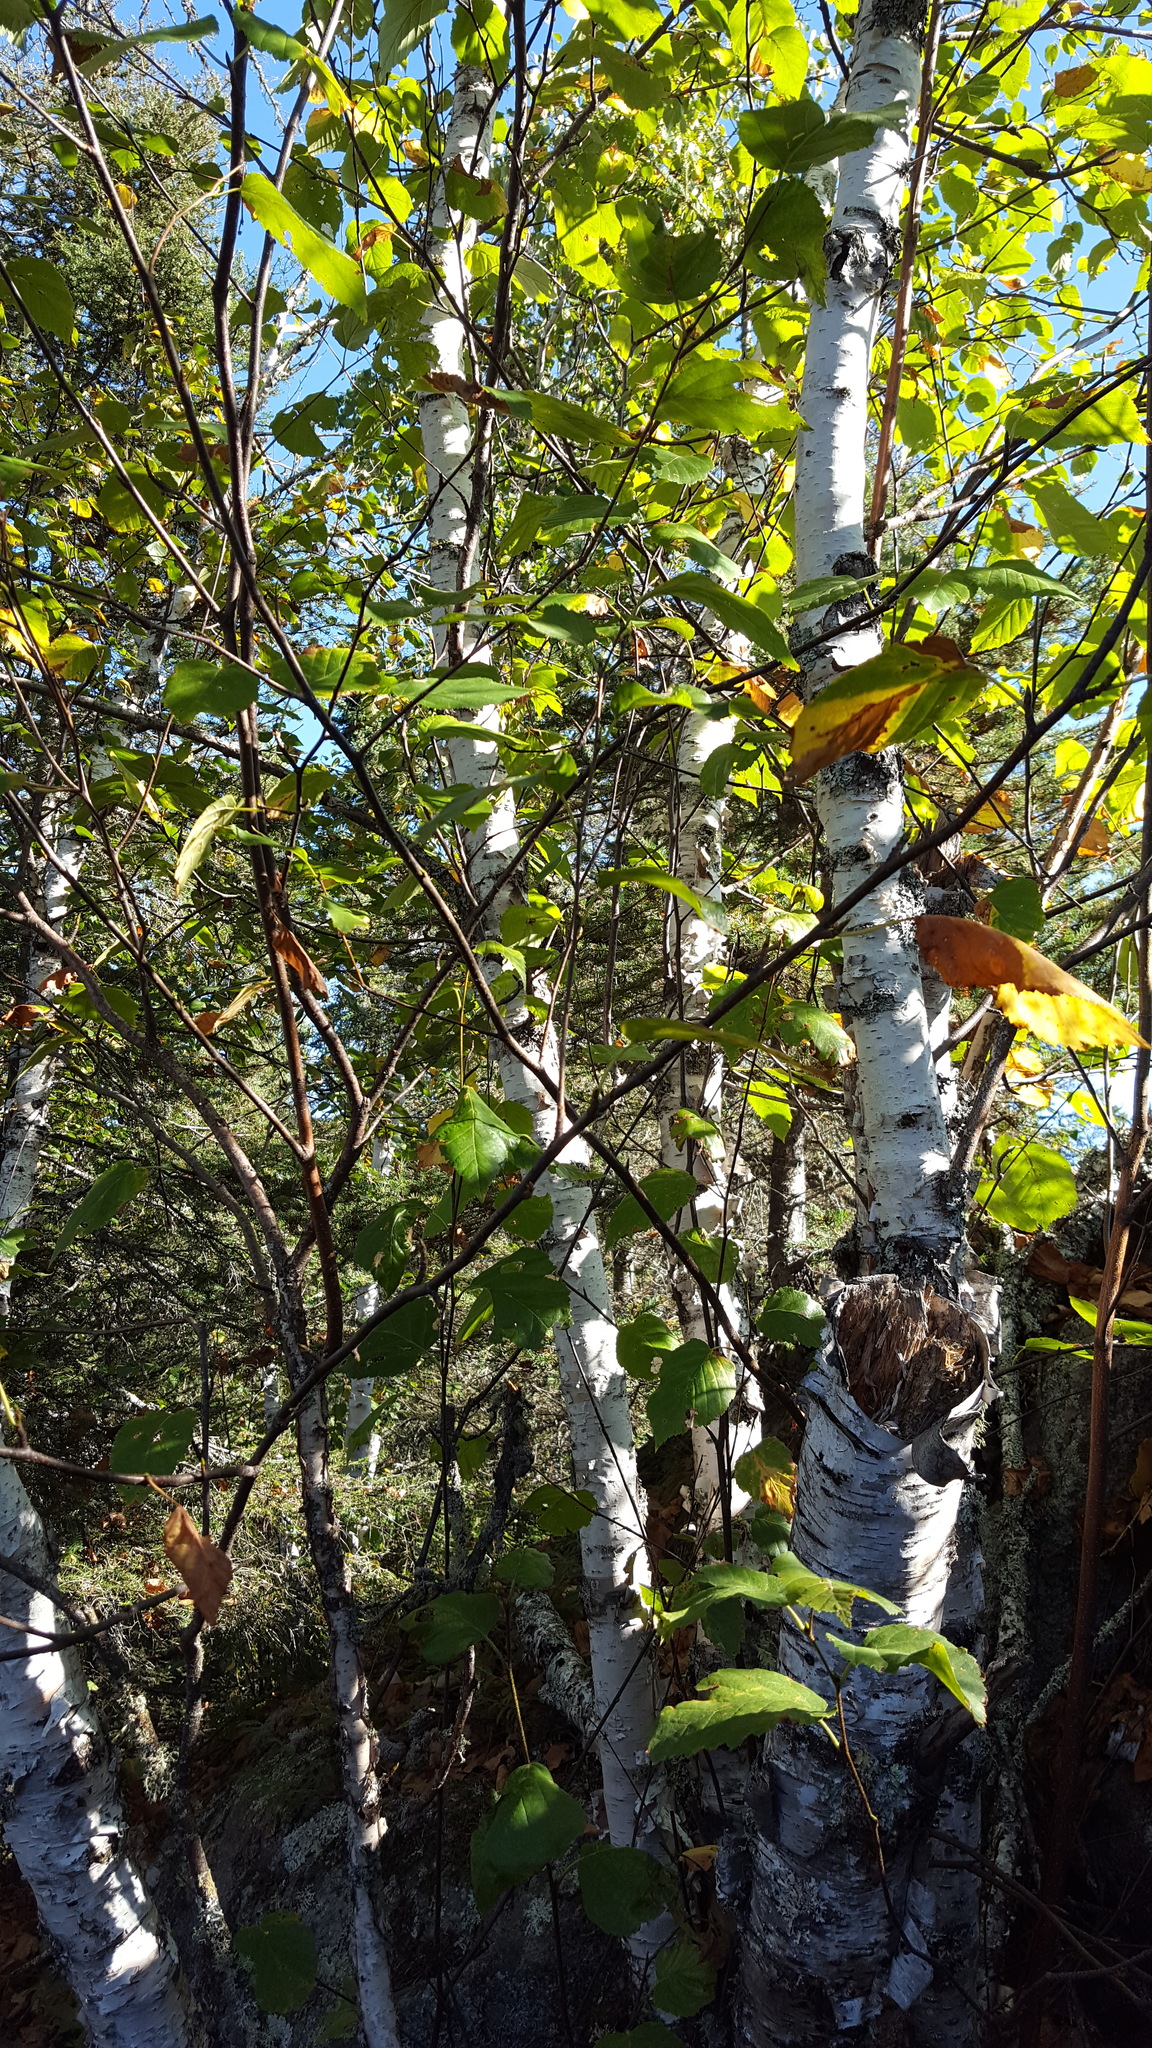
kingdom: Plantae
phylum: Tracheophyta
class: Magnoliopsida
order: Fagales
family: Betulaceae
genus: Betula
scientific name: Betula cordifolia
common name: Mountain white birch
